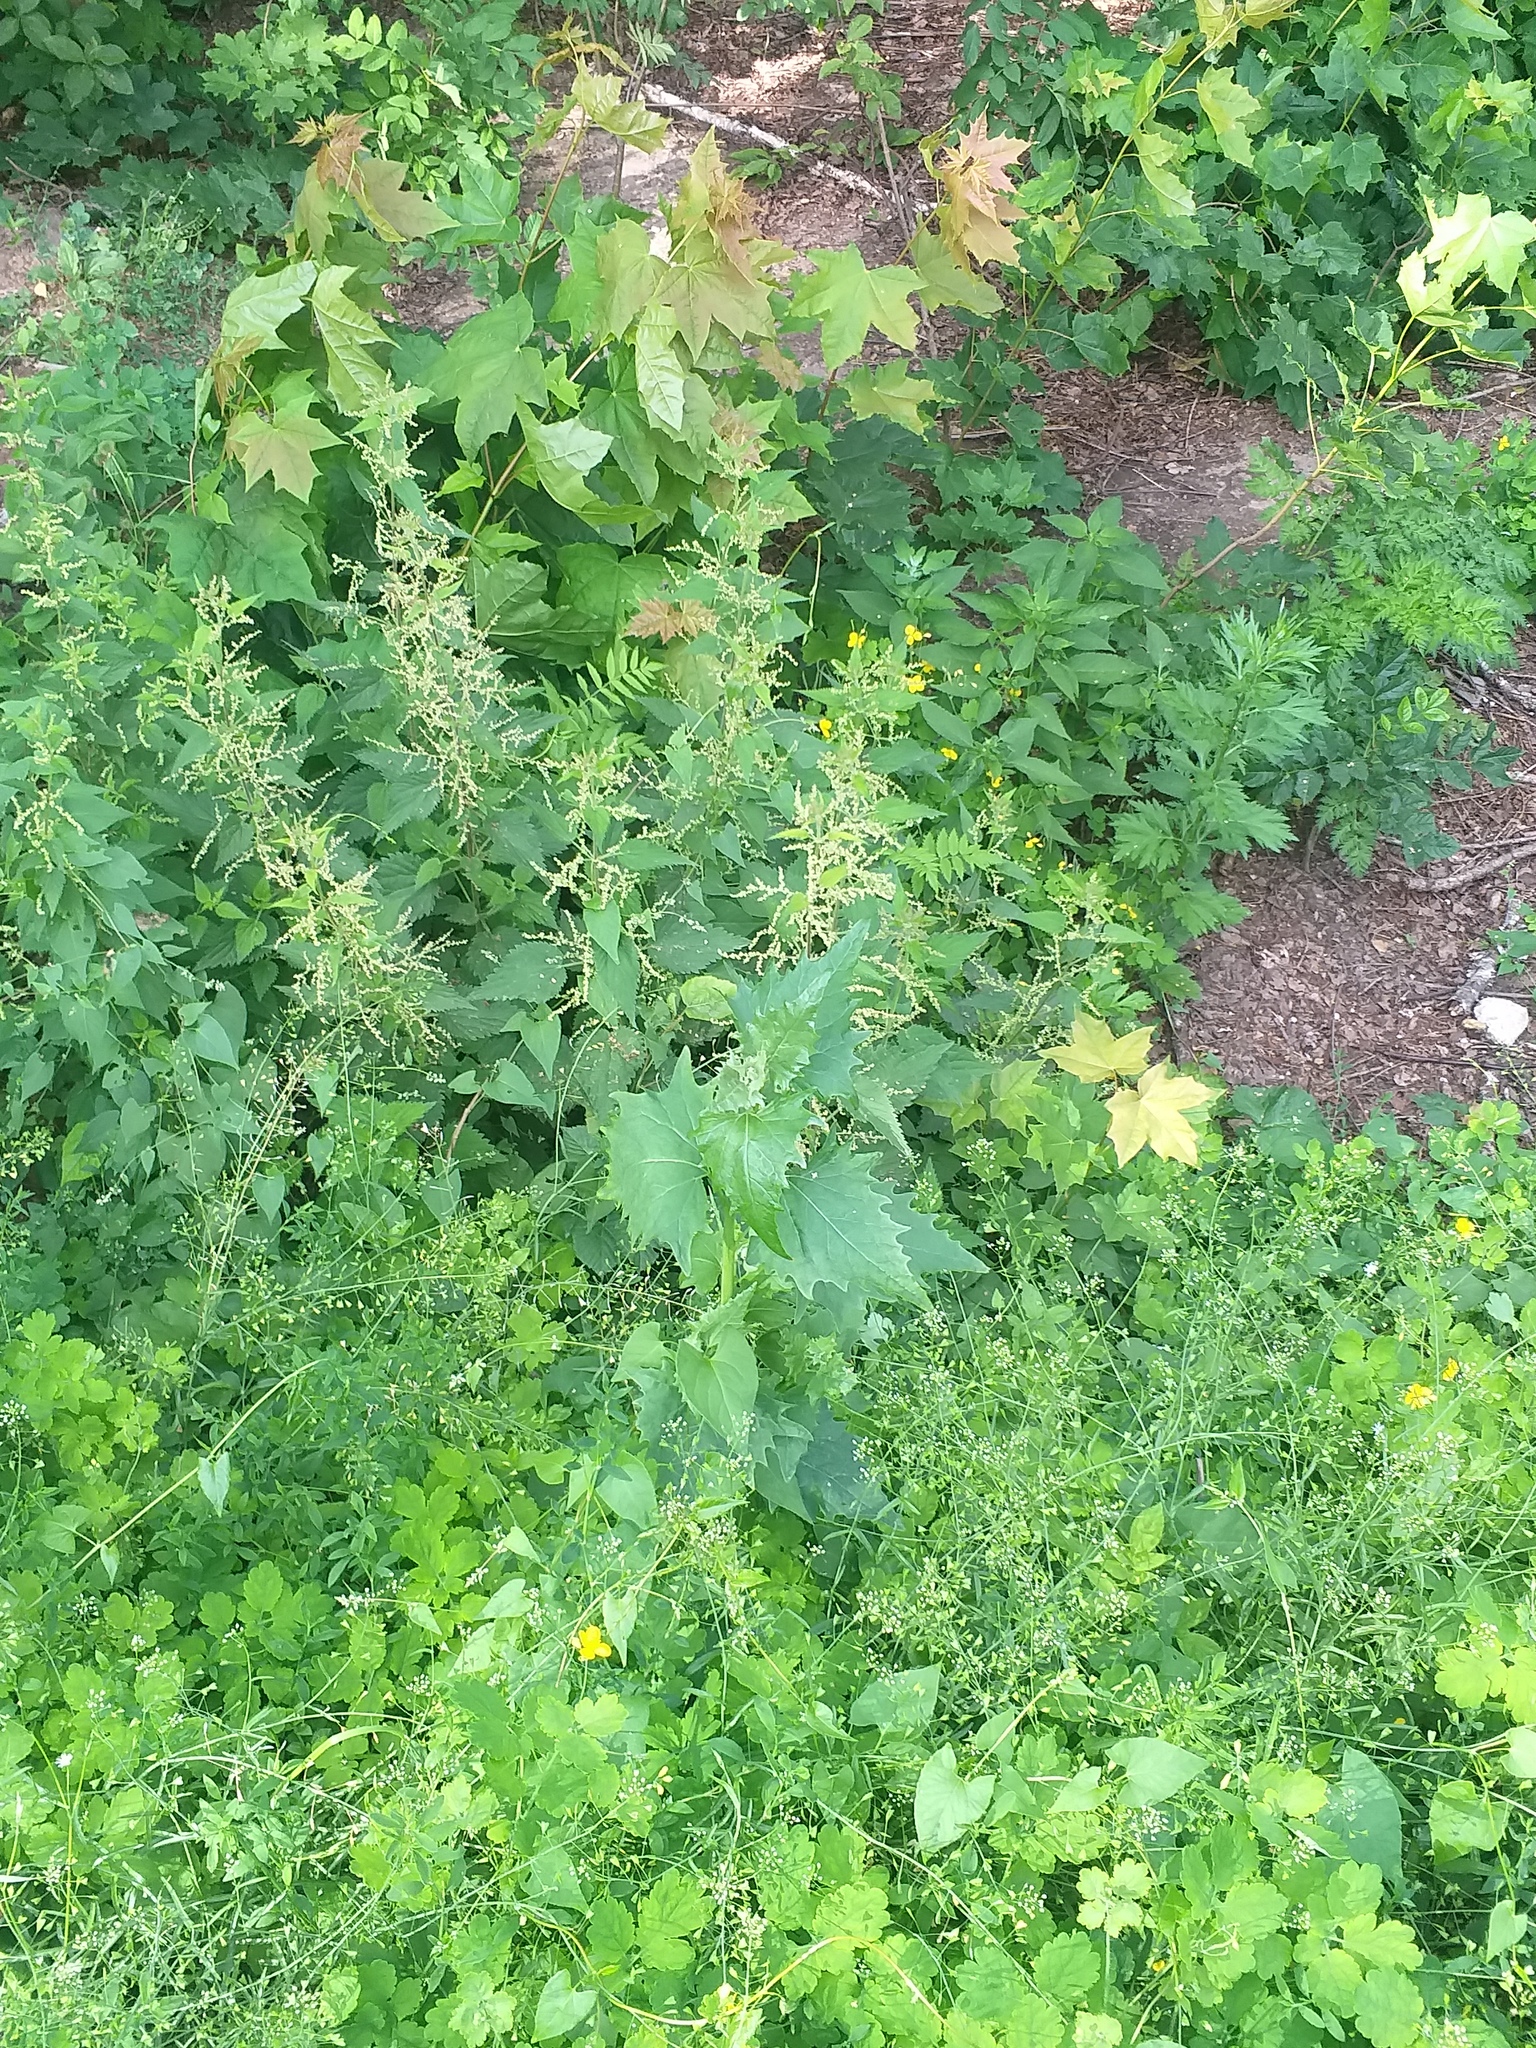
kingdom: Plantae
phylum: Tracheophyta
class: Magnoliopsida
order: Caryophyllales
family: Amaranthaceae
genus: Atriplex
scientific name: Atriplex sagittata
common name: Purple orache
